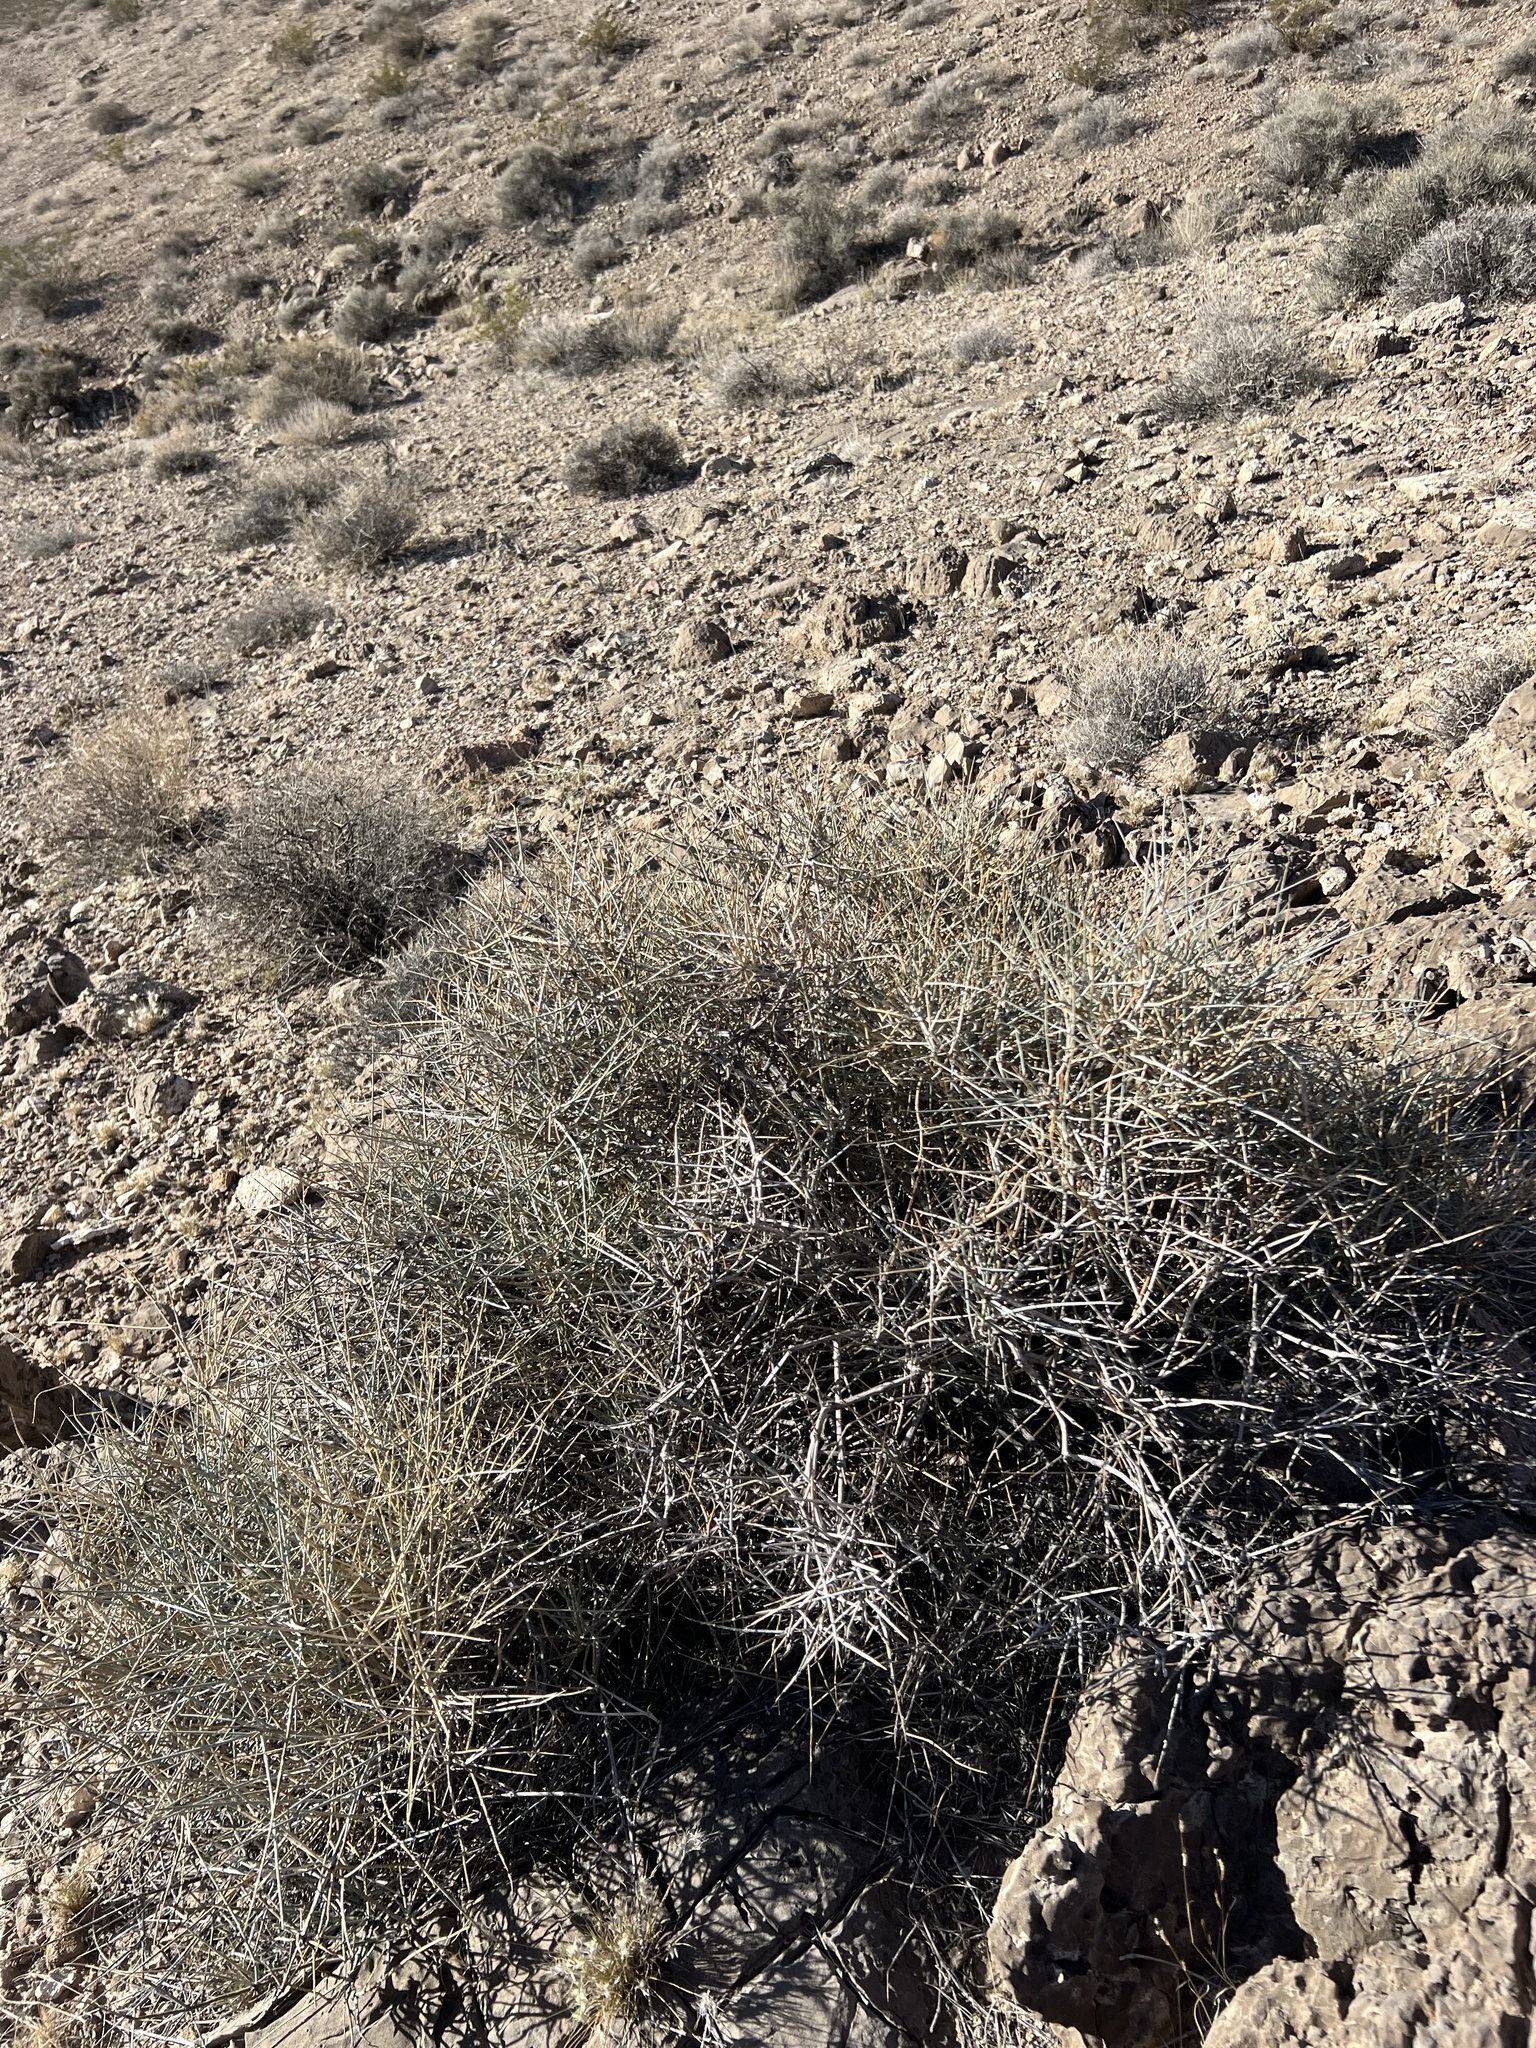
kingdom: Plantae
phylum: Tracheophyta
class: Gnetopsida
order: Ephedrales
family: Ephedraceae
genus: Ephedra
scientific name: Ephedra nevadensis
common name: Gray ephedra
